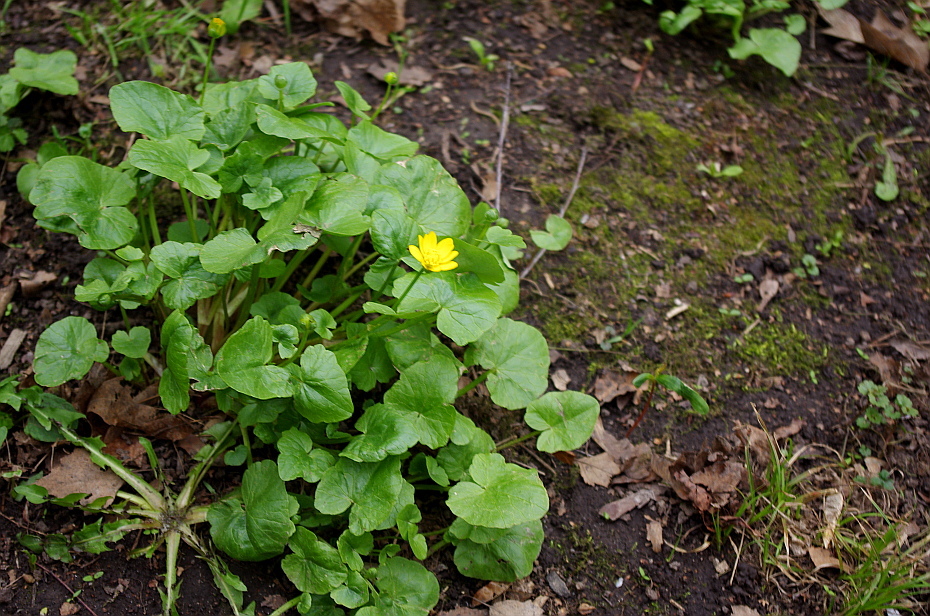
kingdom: Plantae
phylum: Tracheophyta
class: Magnoliopsida
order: Ranunculales
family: Ranunculaceae
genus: Ficaria
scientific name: Ficaria verna
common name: Lesser celandine
